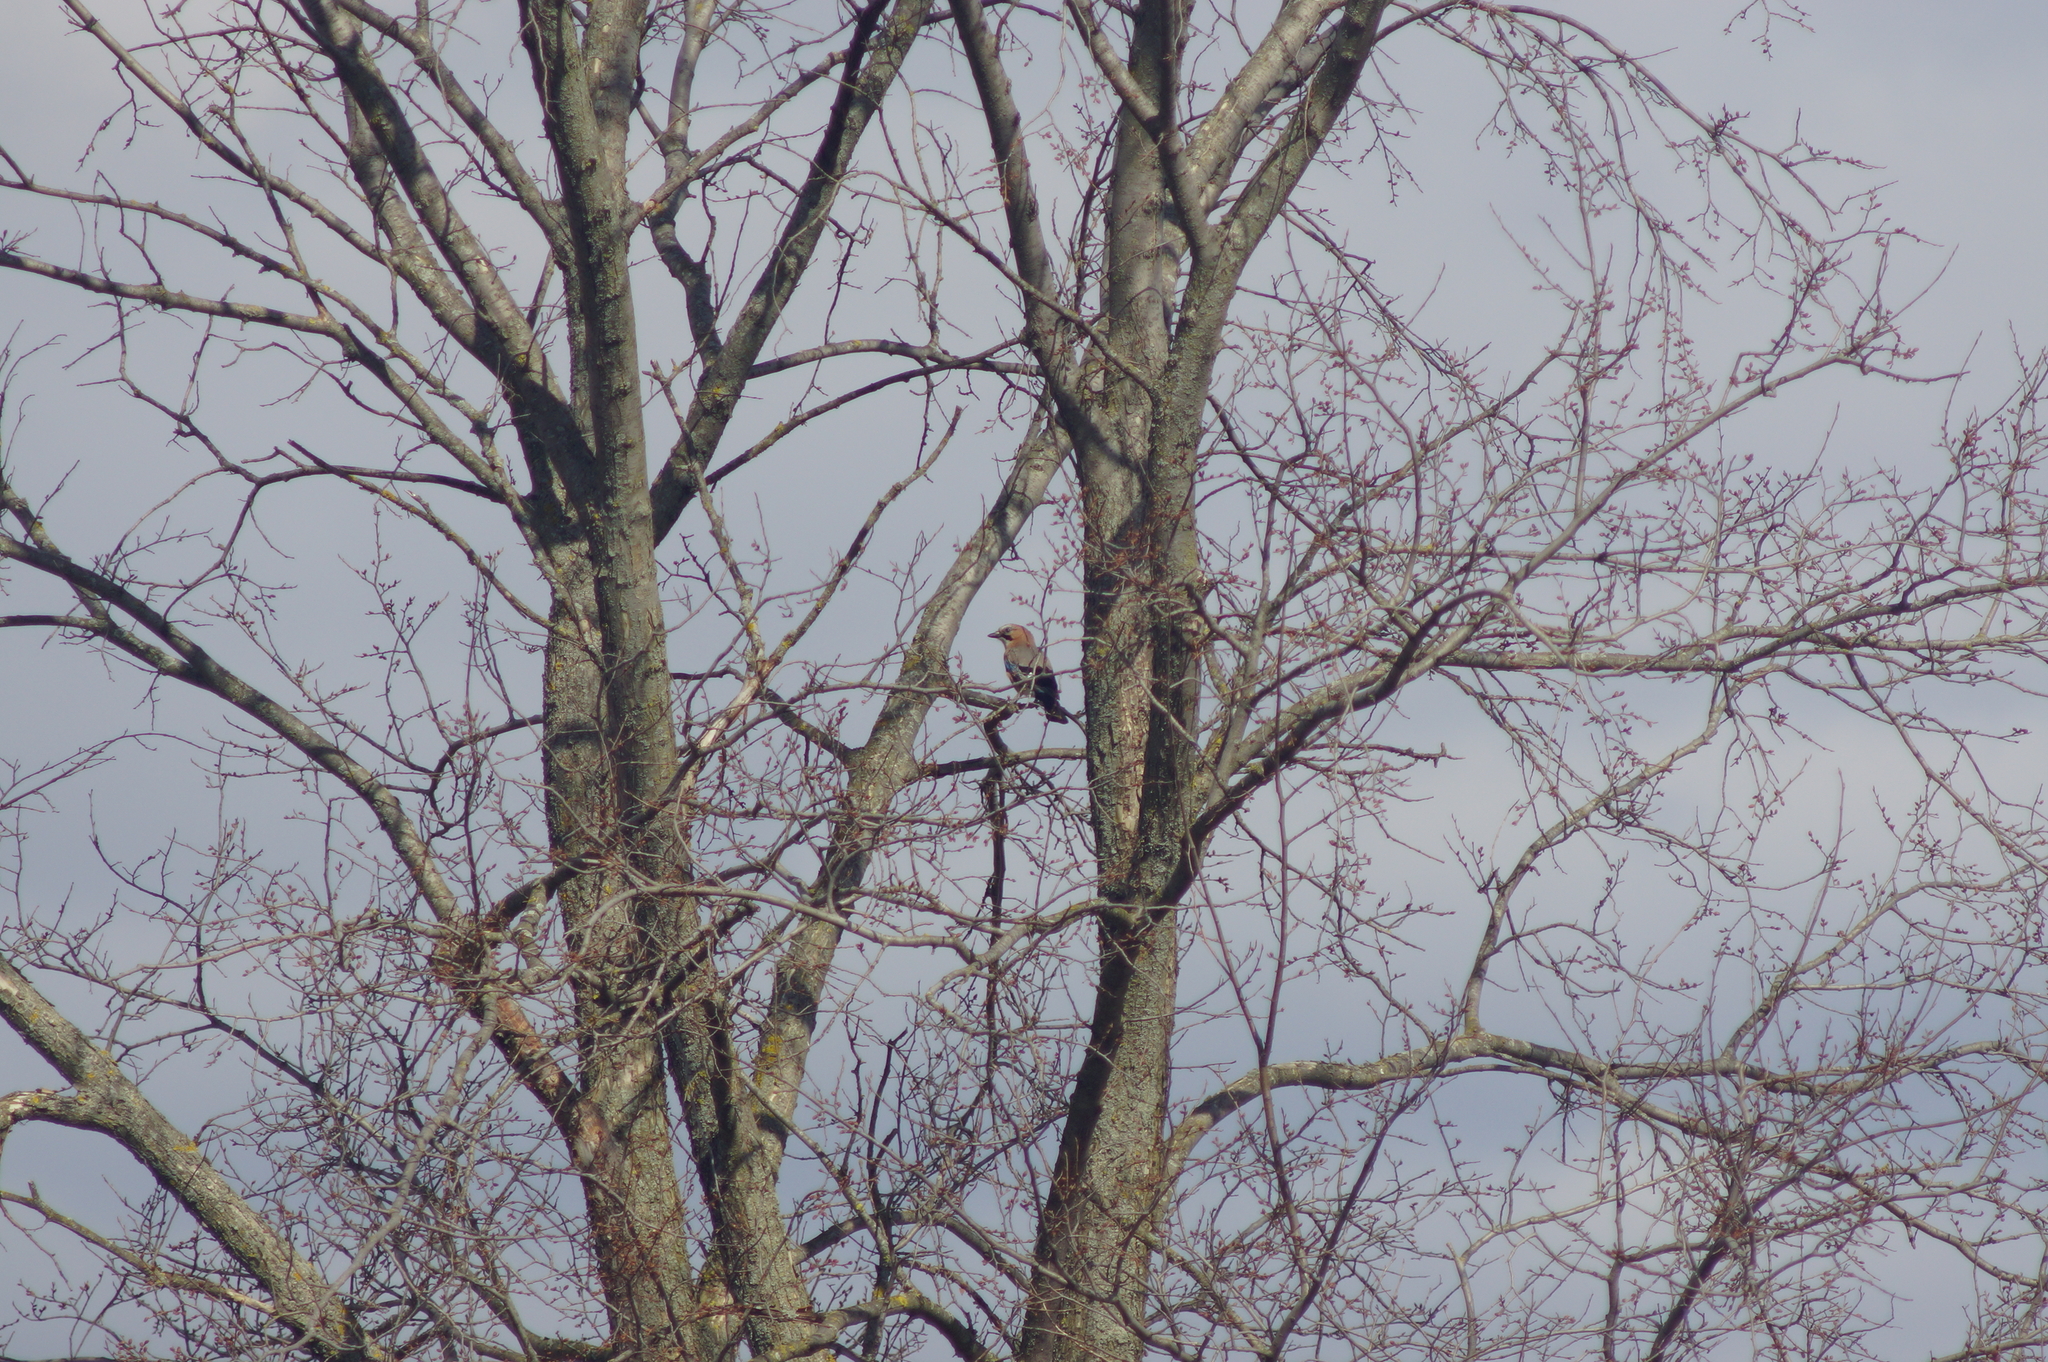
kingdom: Animalia
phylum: Chordata
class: Aves
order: Passeriformes
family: Corvidae
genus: Garrulus
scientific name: Garrulus glandarius
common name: Eurasian jay
